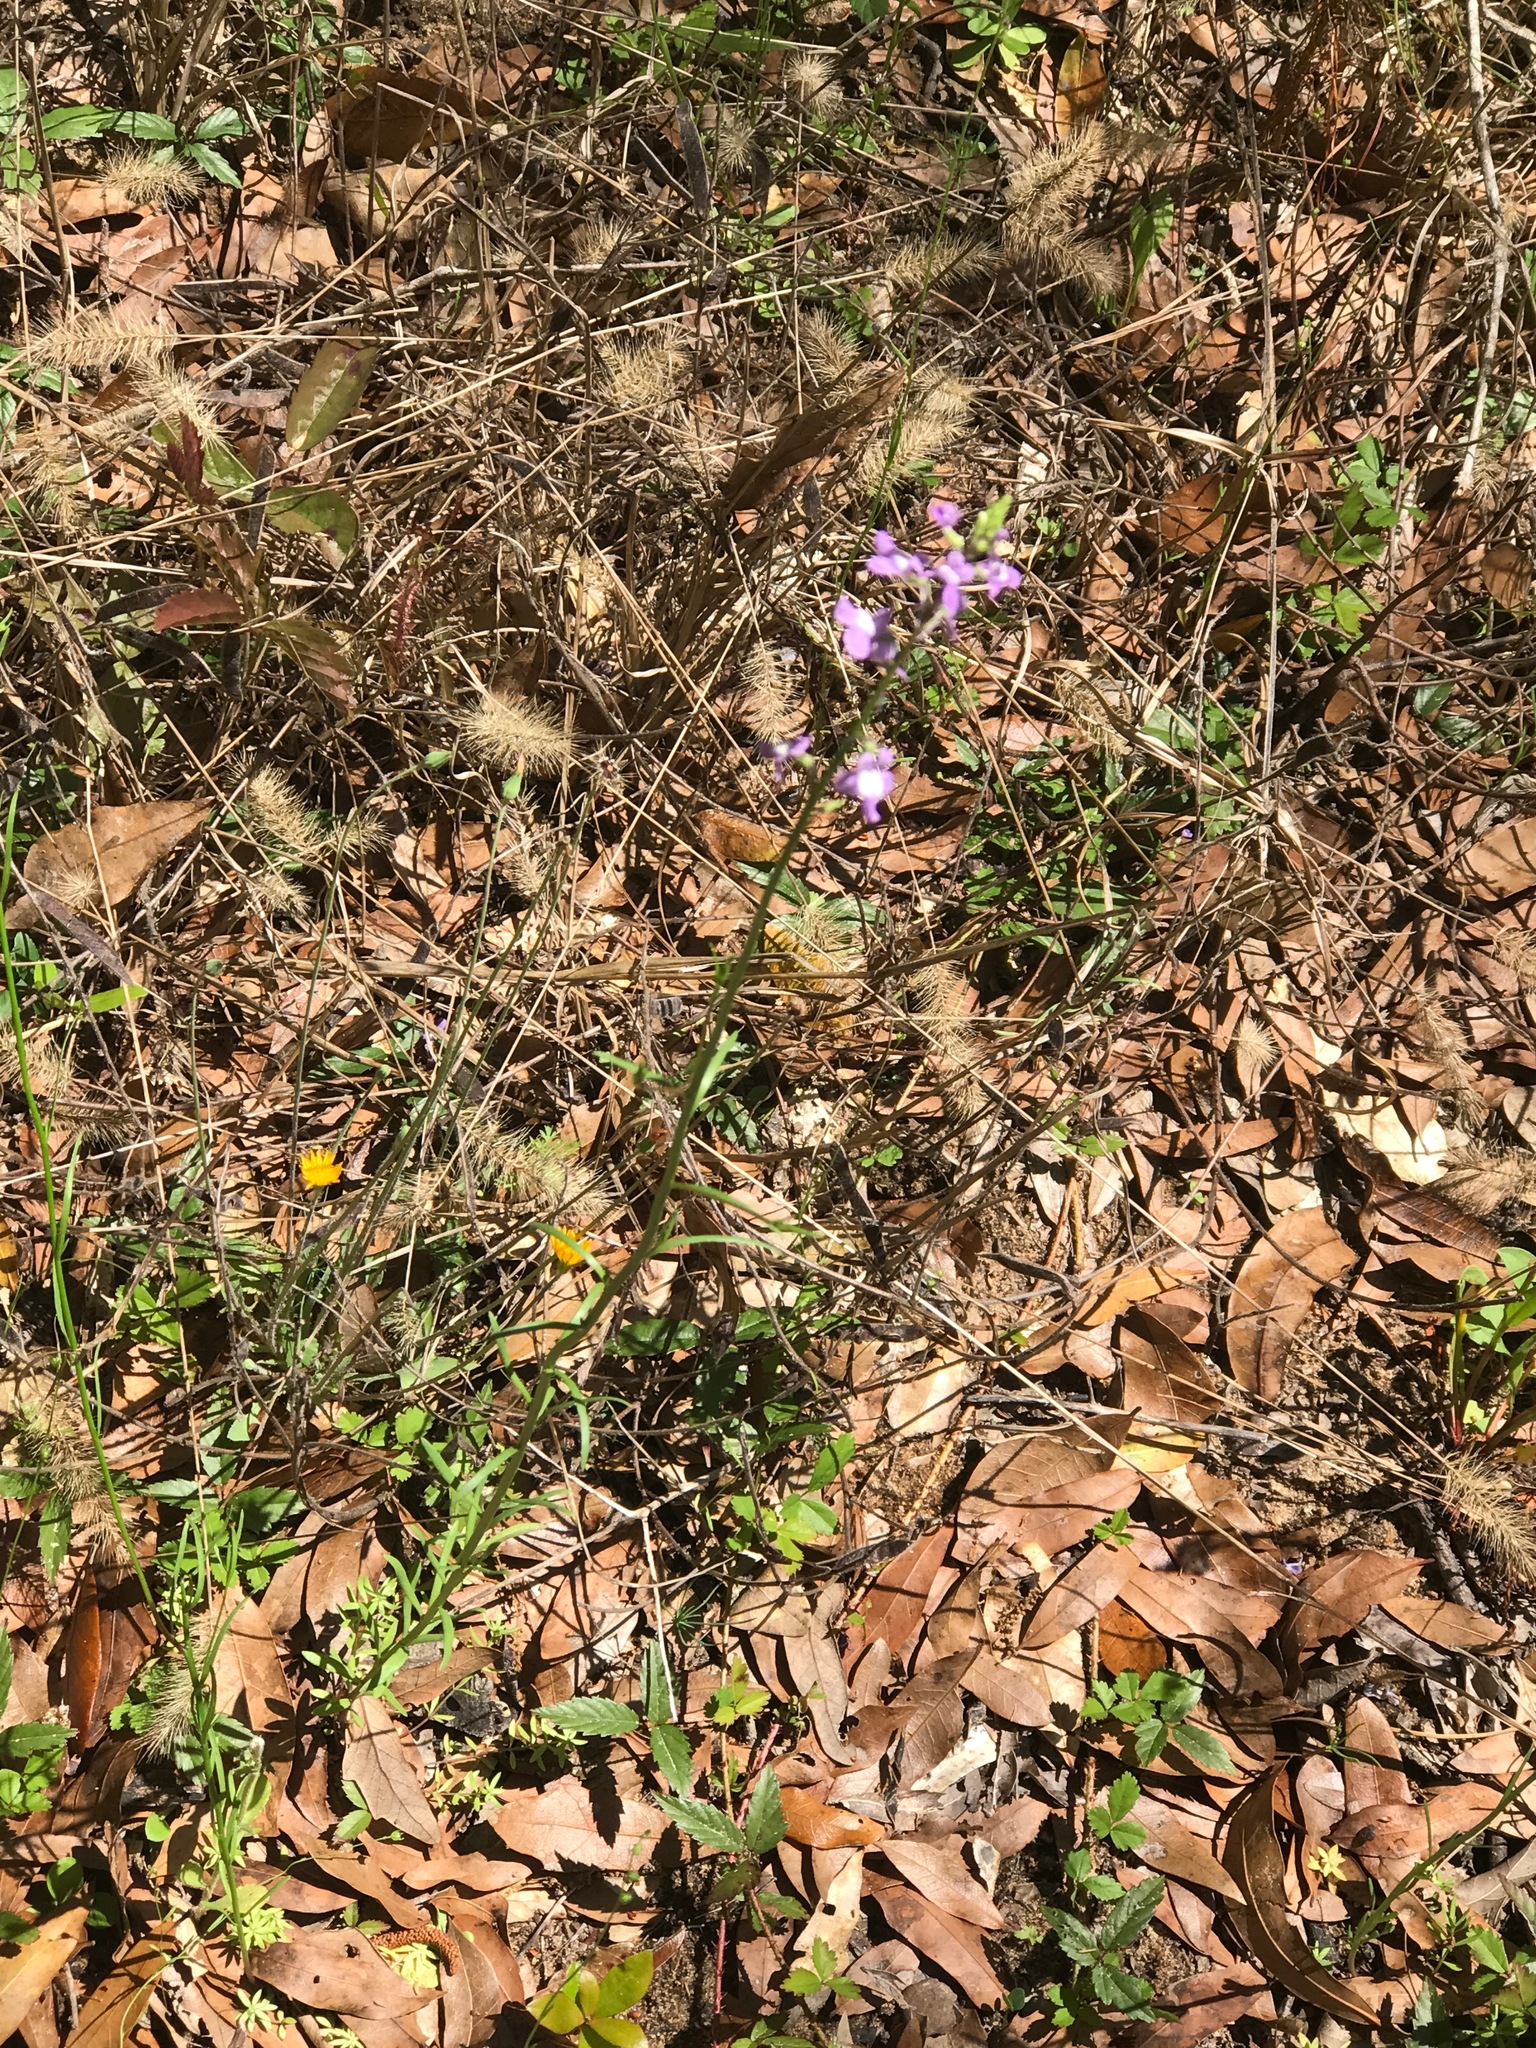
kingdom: Plantae
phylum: Tracheophyta
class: Magnoliopsida
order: Lamiales
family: Plantaginaceae
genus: Nuttallanthus
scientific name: Nuttallanthus canadensis
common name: Blue toadflax
